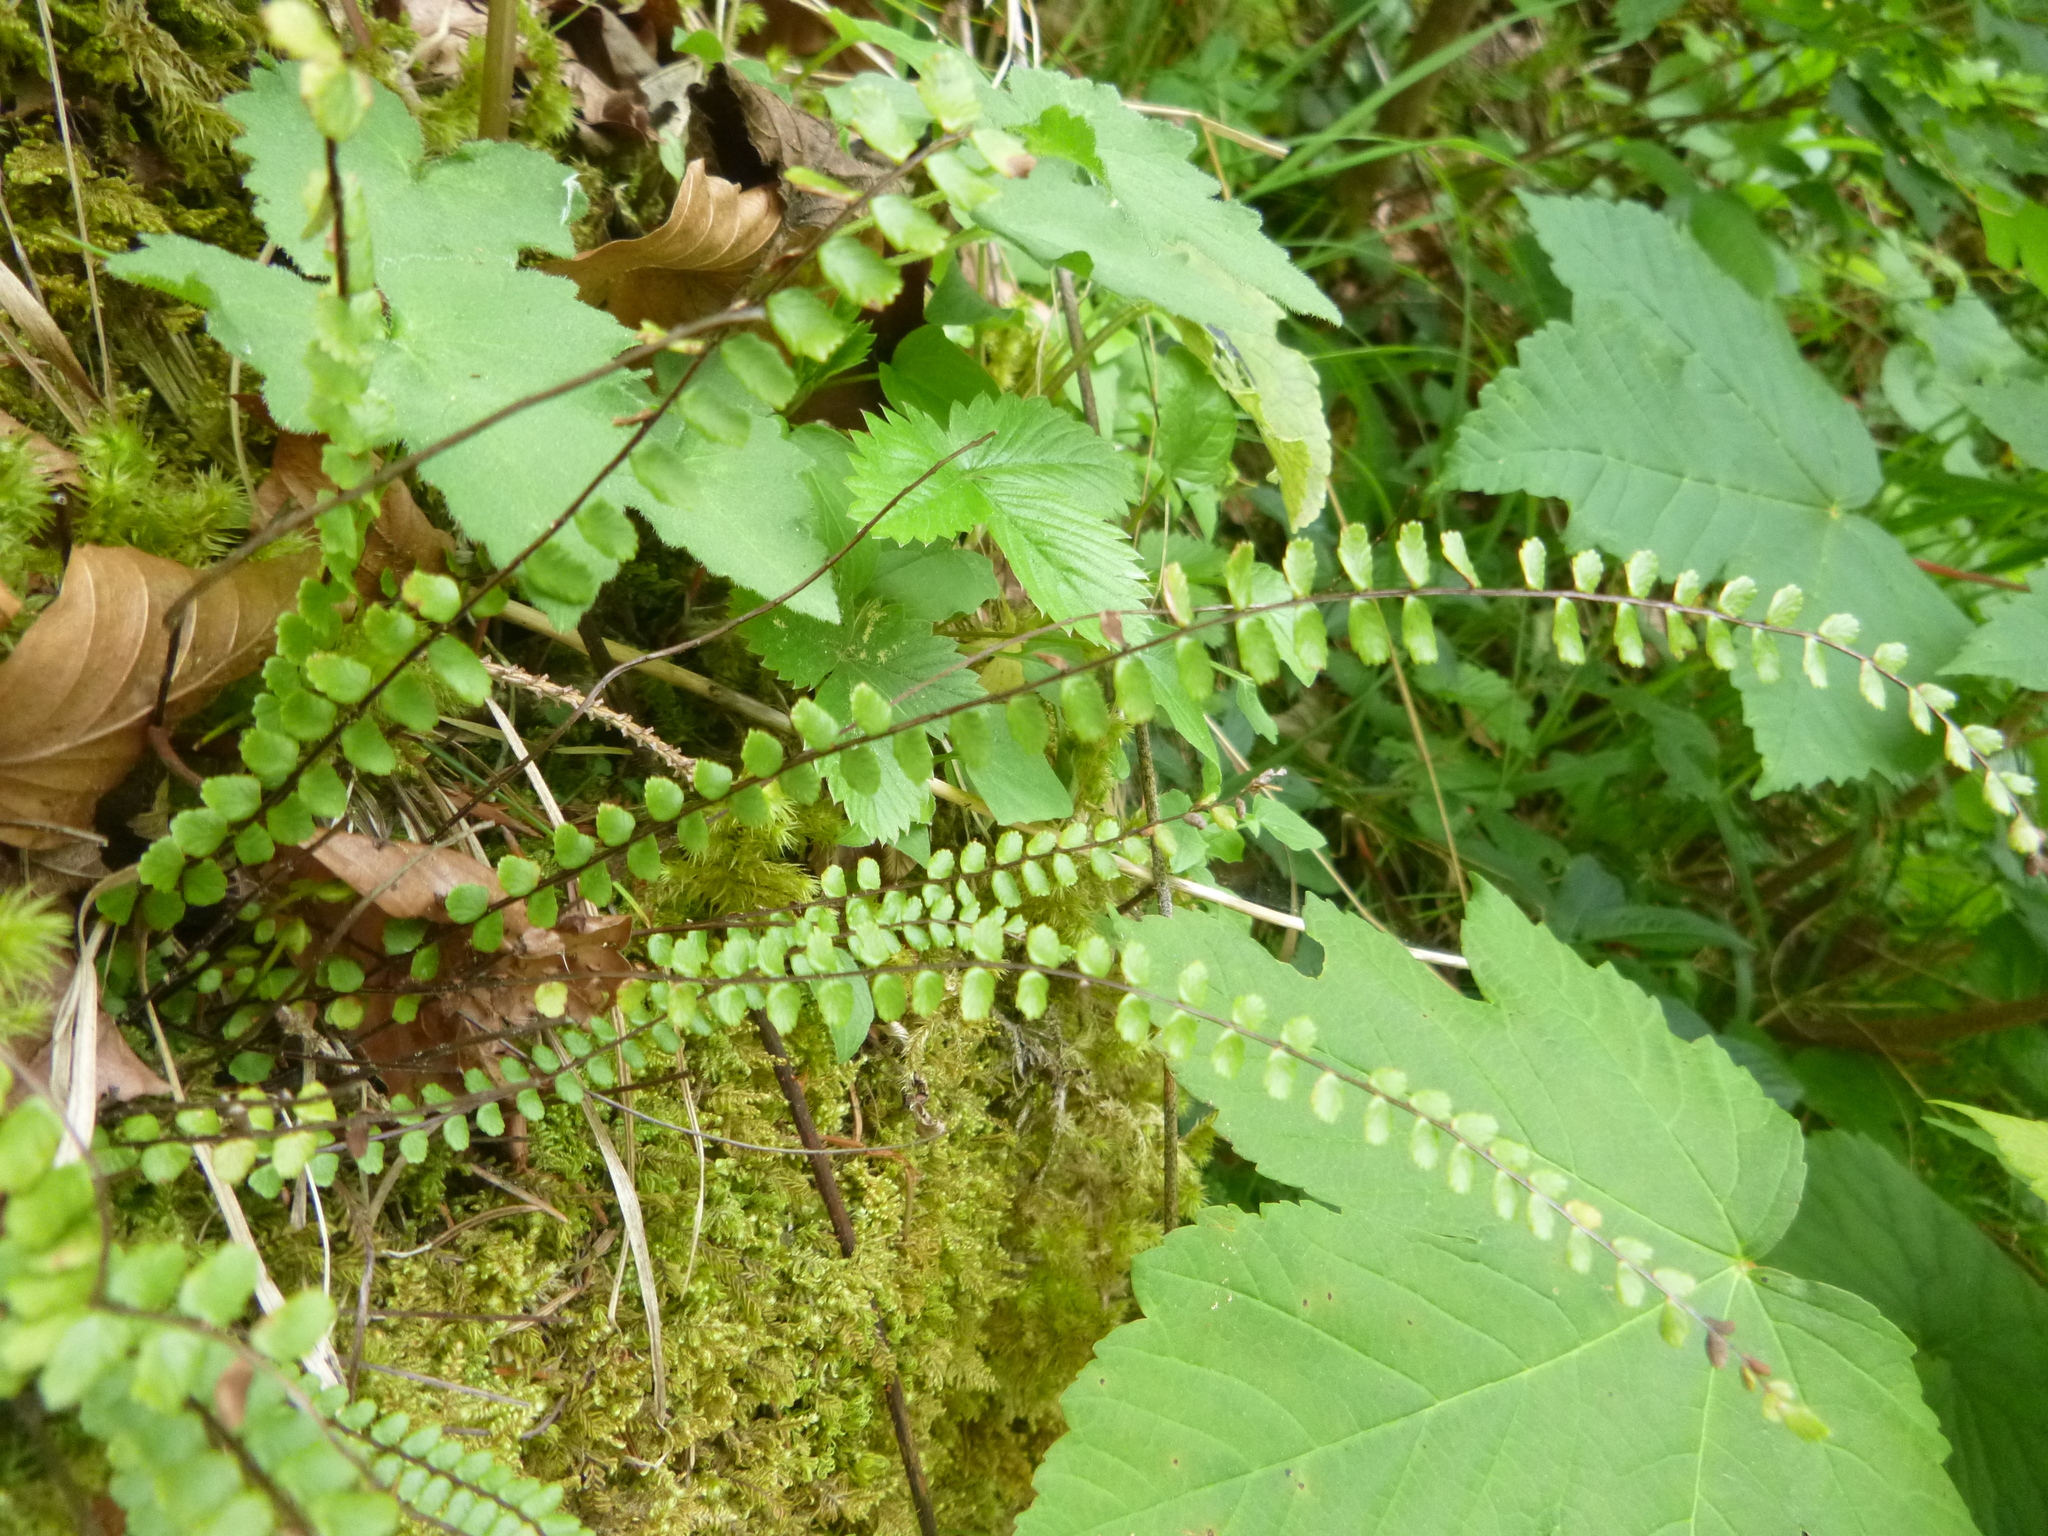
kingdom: Plantae
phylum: Tracheophyta
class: Polypodiopsida
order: Polypodiales
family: Aspleniaceae
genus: Asplenium
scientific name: Asplenium trichomanes
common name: Maidenhair spleenwort
